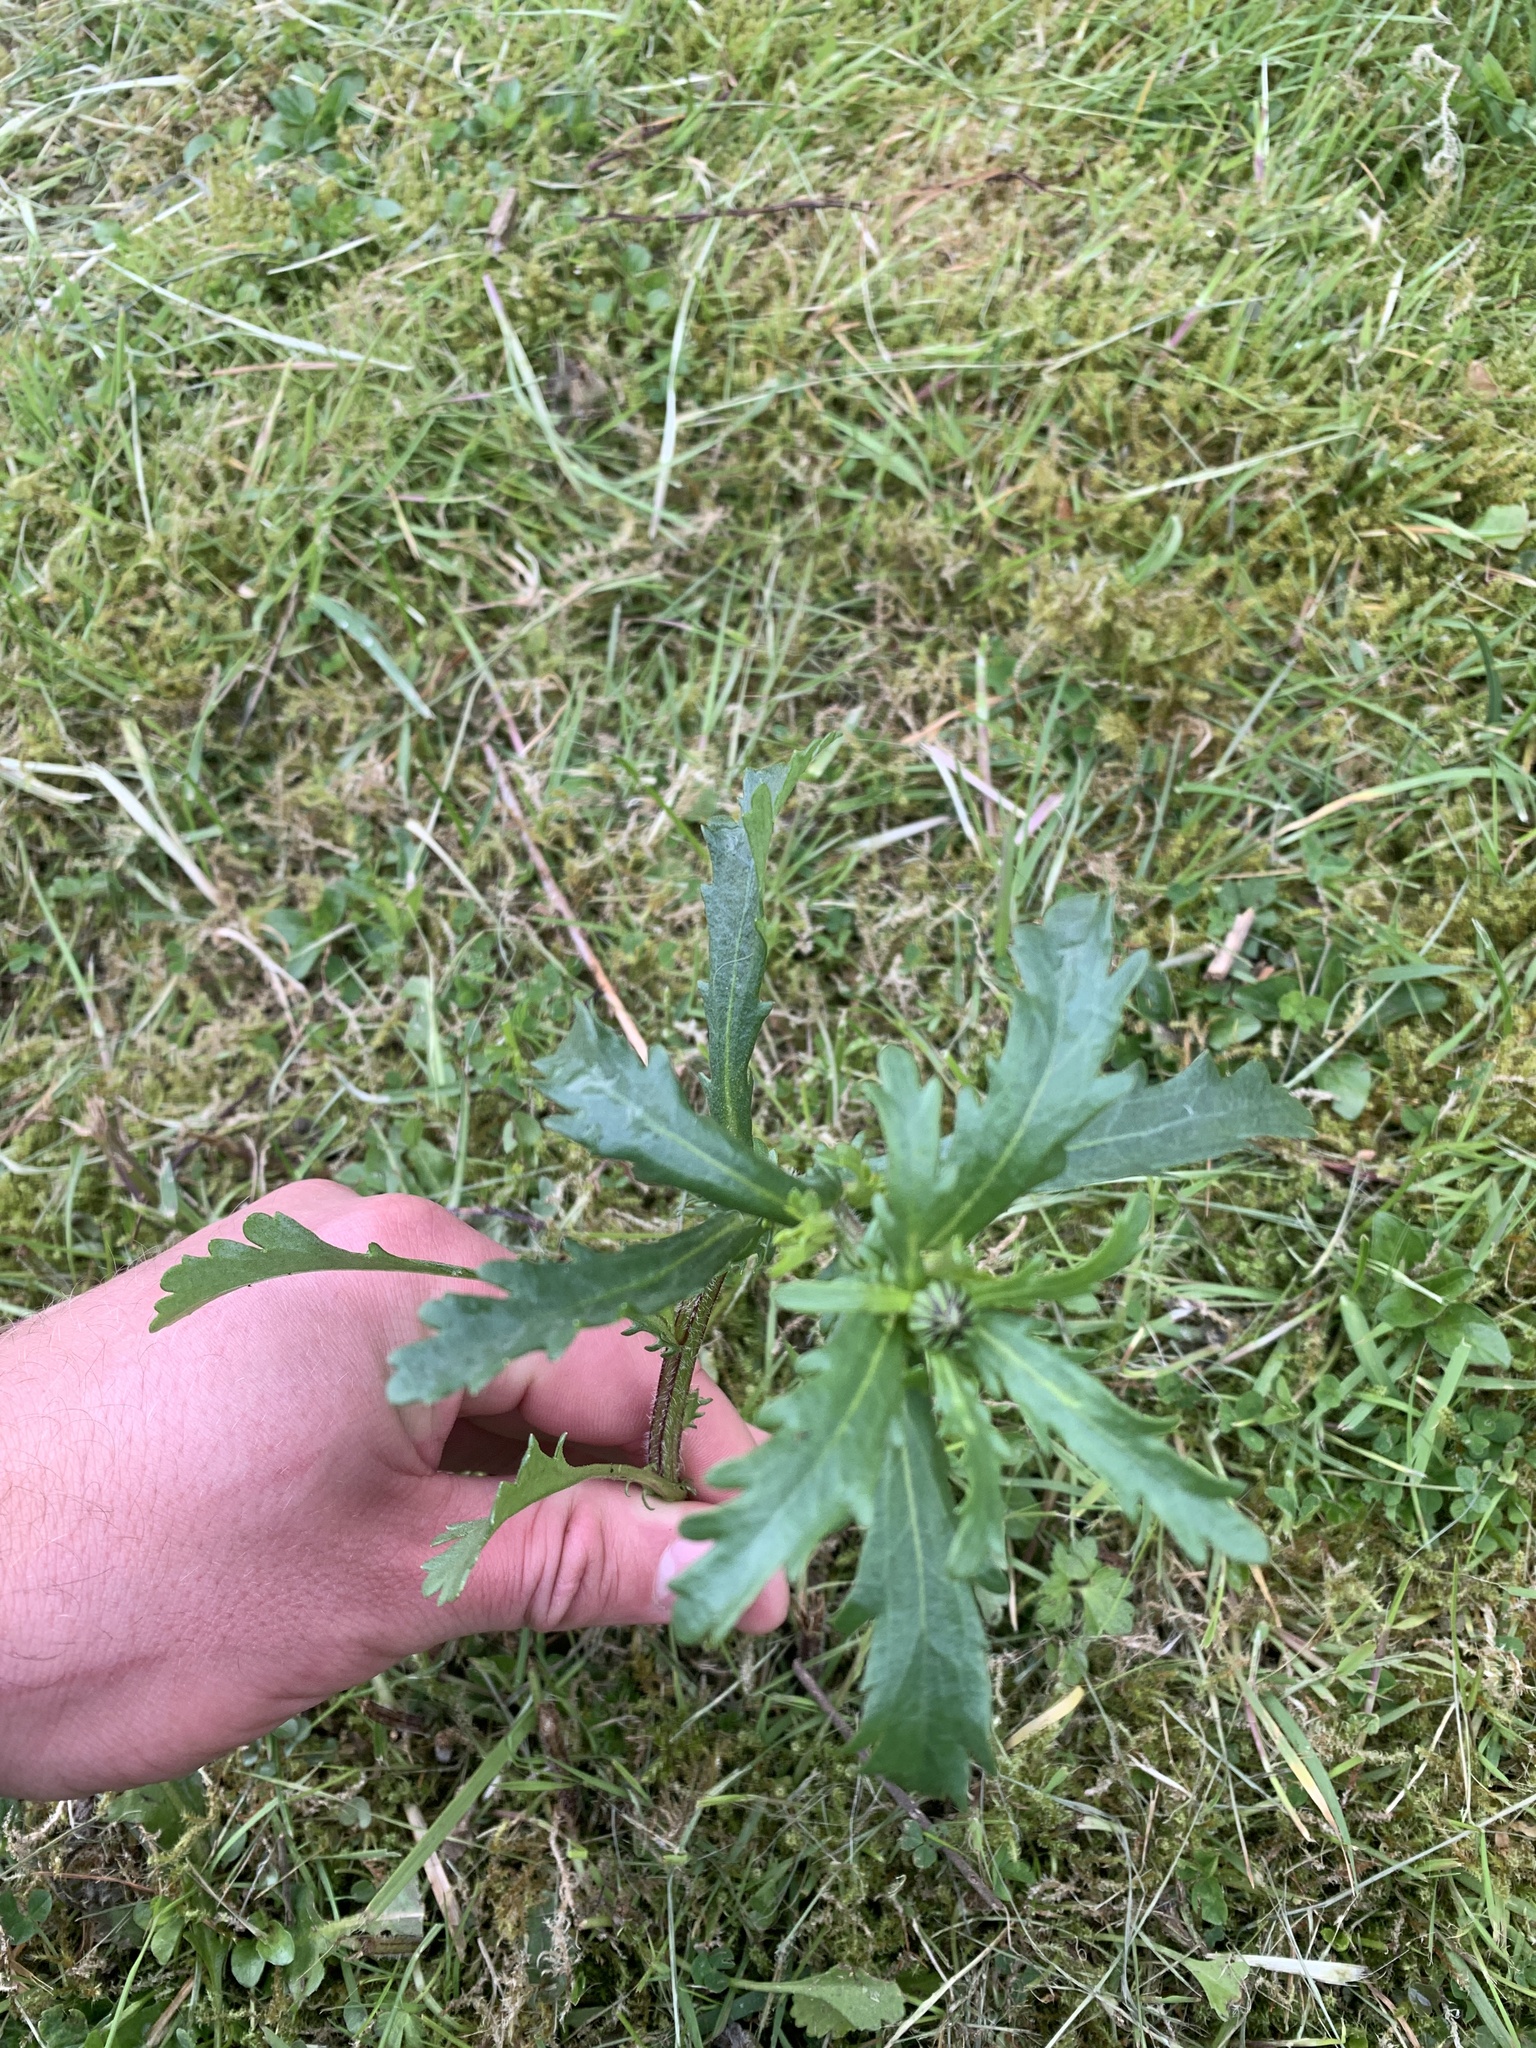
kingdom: Plantae
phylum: Tracheophyta
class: Magnoliopsida
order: Asterales
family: Asteraceae
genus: Leucanthemum
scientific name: Leucanthemum vulgare
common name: Oxeye daisy
